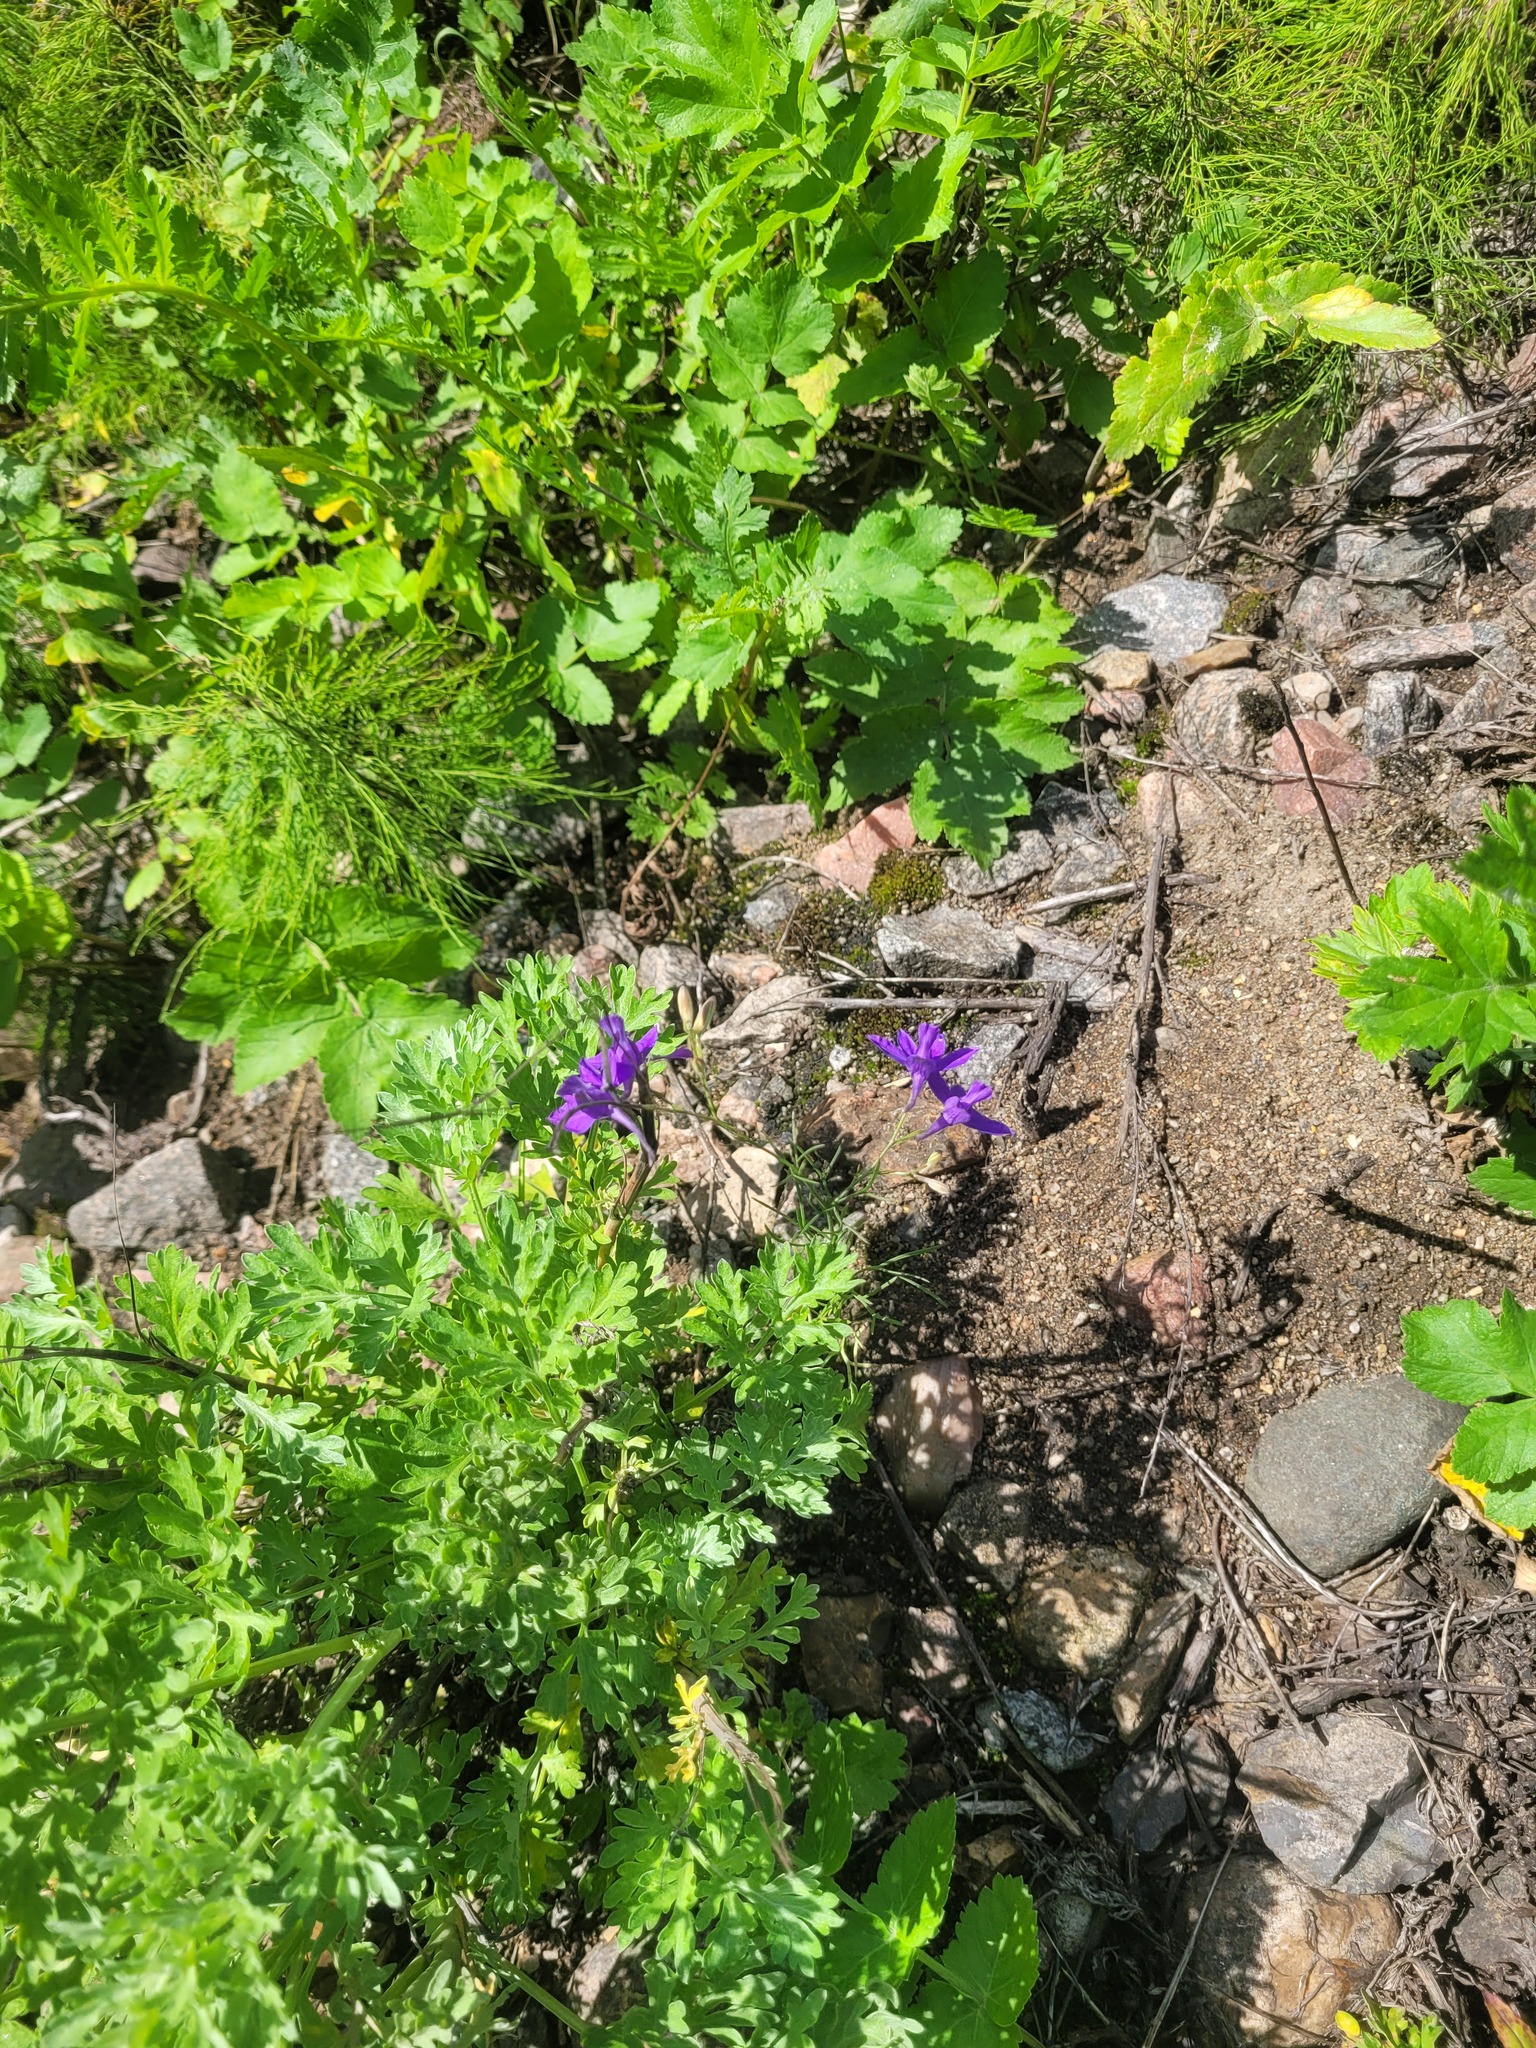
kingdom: Plantae
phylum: Tracheophyta
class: Magnoliopsida
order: Ranunculales
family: Ranunculaceae
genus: Delphinium
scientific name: Delphinium consolida
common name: Branching larkspur
